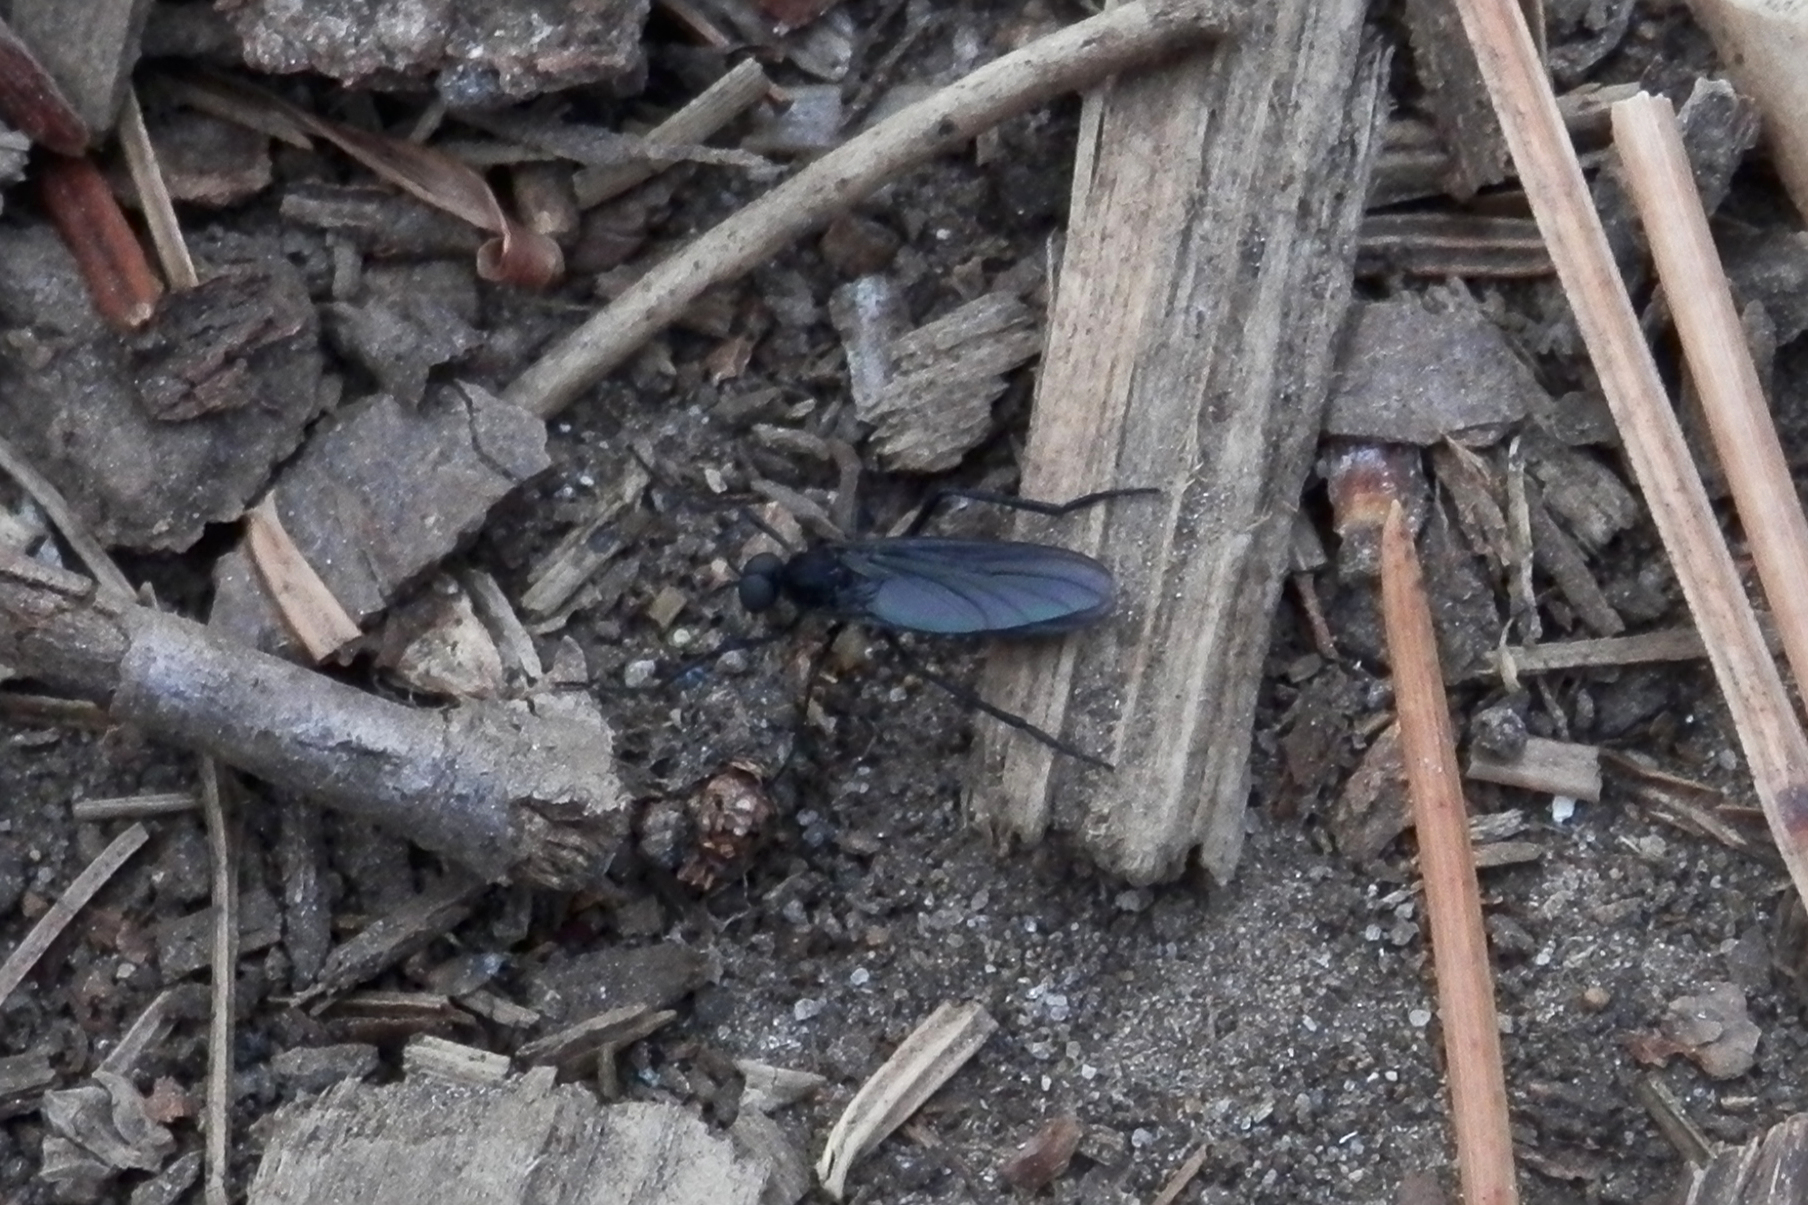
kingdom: Animalia
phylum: Arthropoda
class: Insecta
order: Diptera
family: Bibionidae
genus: Penthetria
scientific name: Penthetria heteroptera
